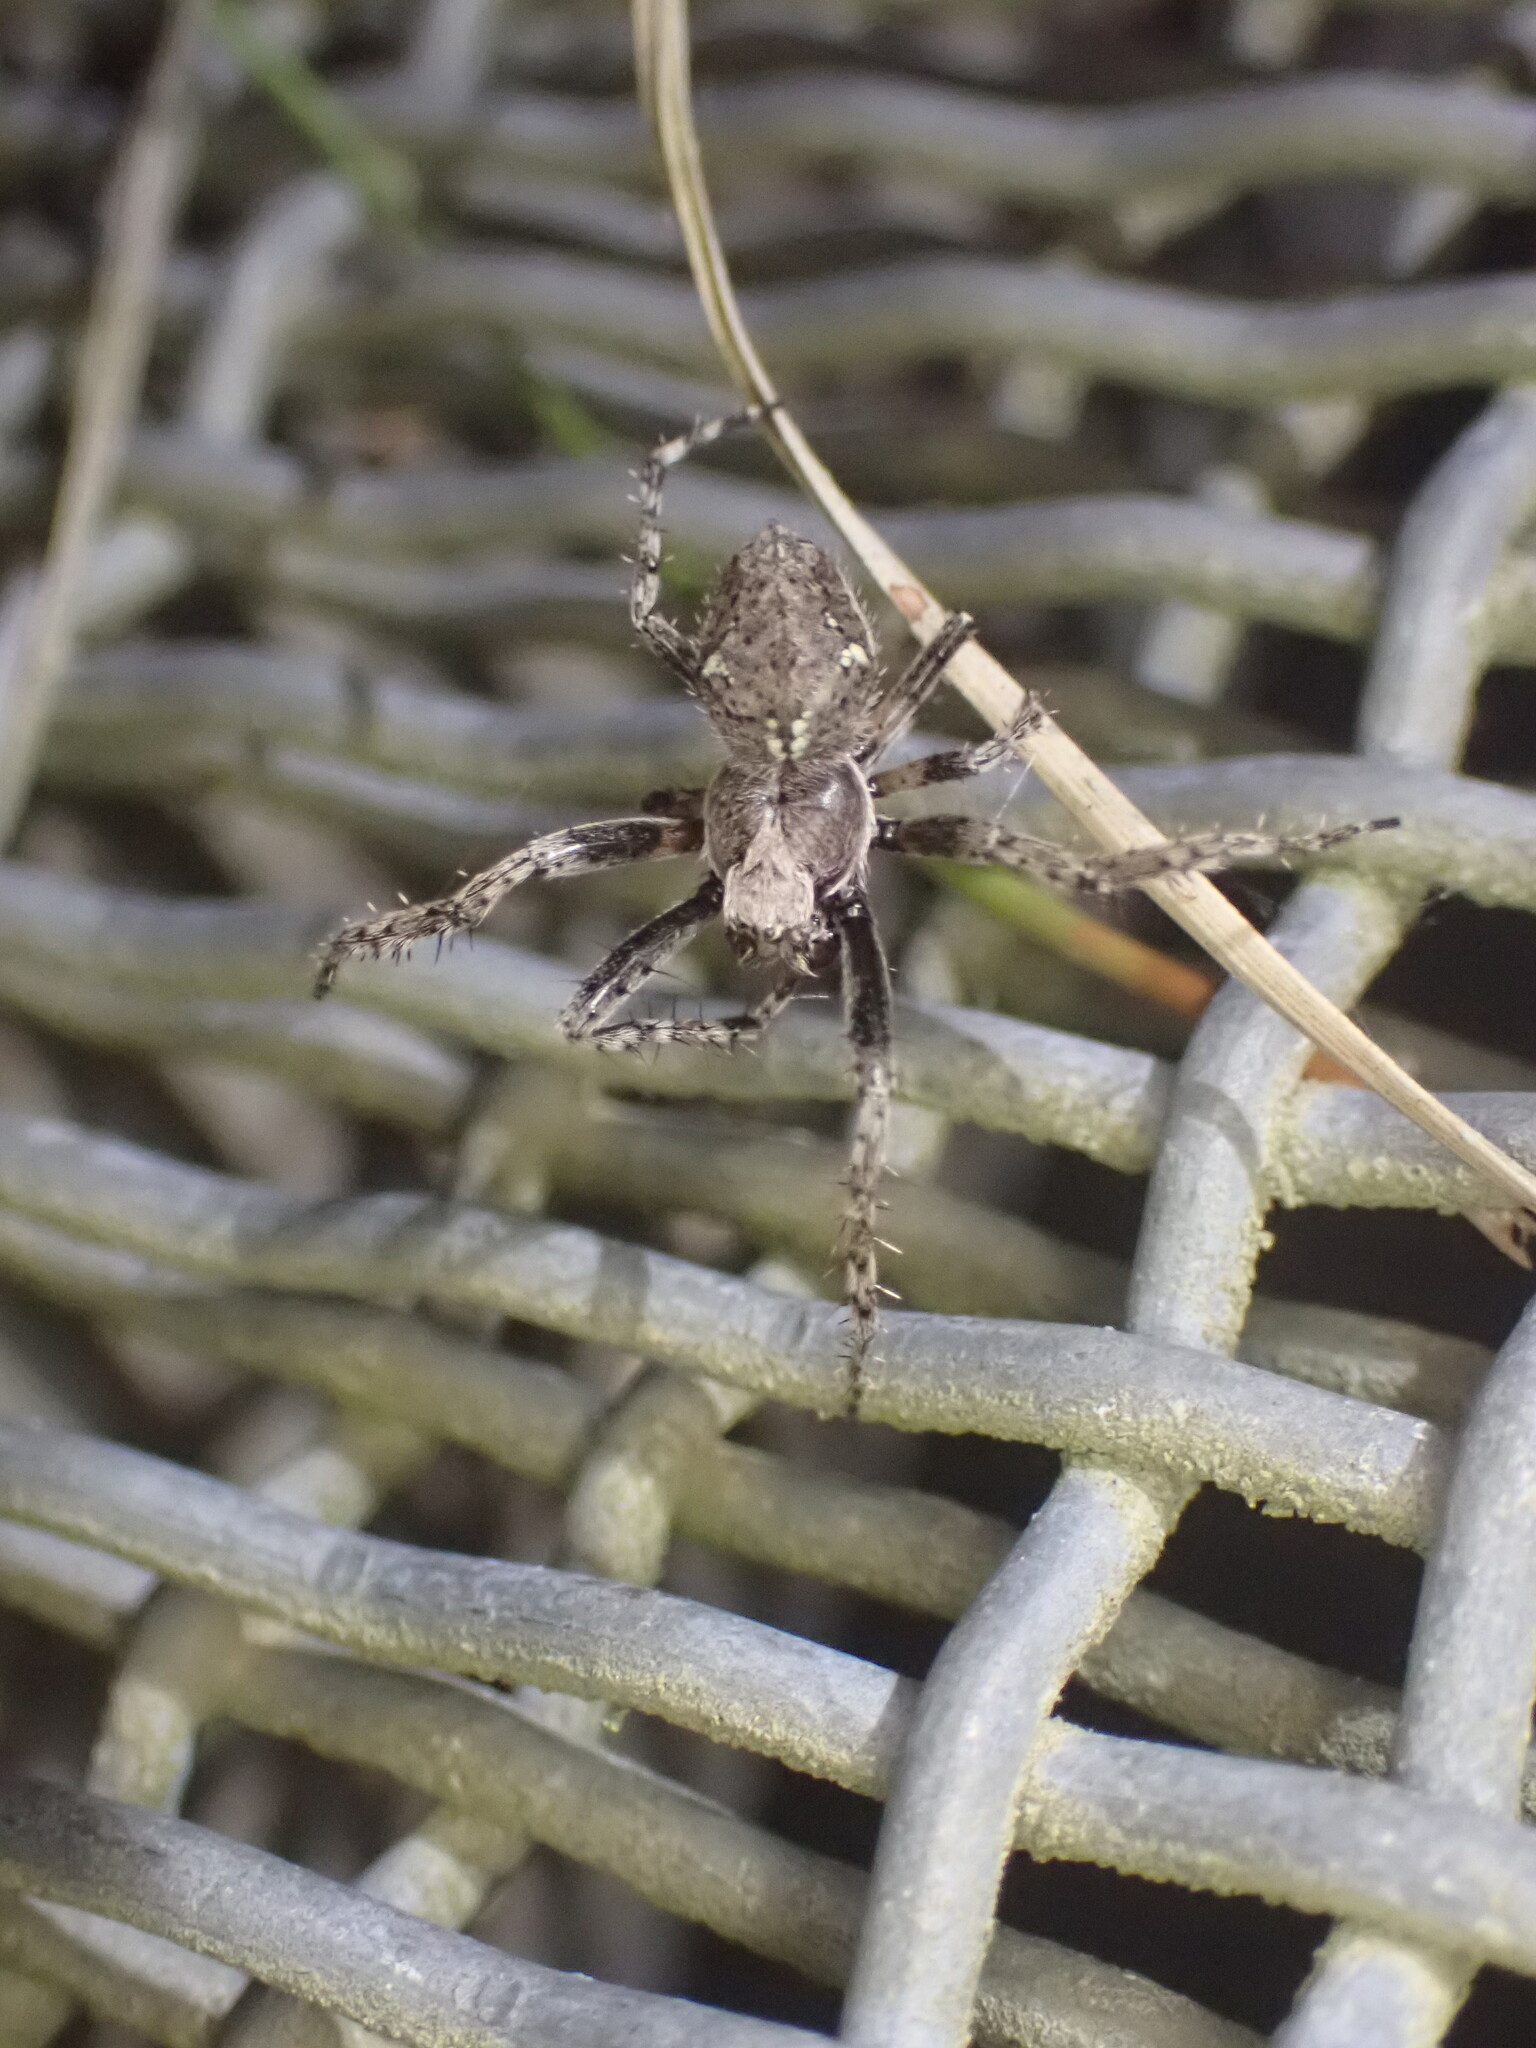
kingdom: Animalia
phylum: Arthropoda
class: Arachnida
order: Araneae
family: Araneidae
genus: Eriophora
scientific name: Eriophora pustulosa
